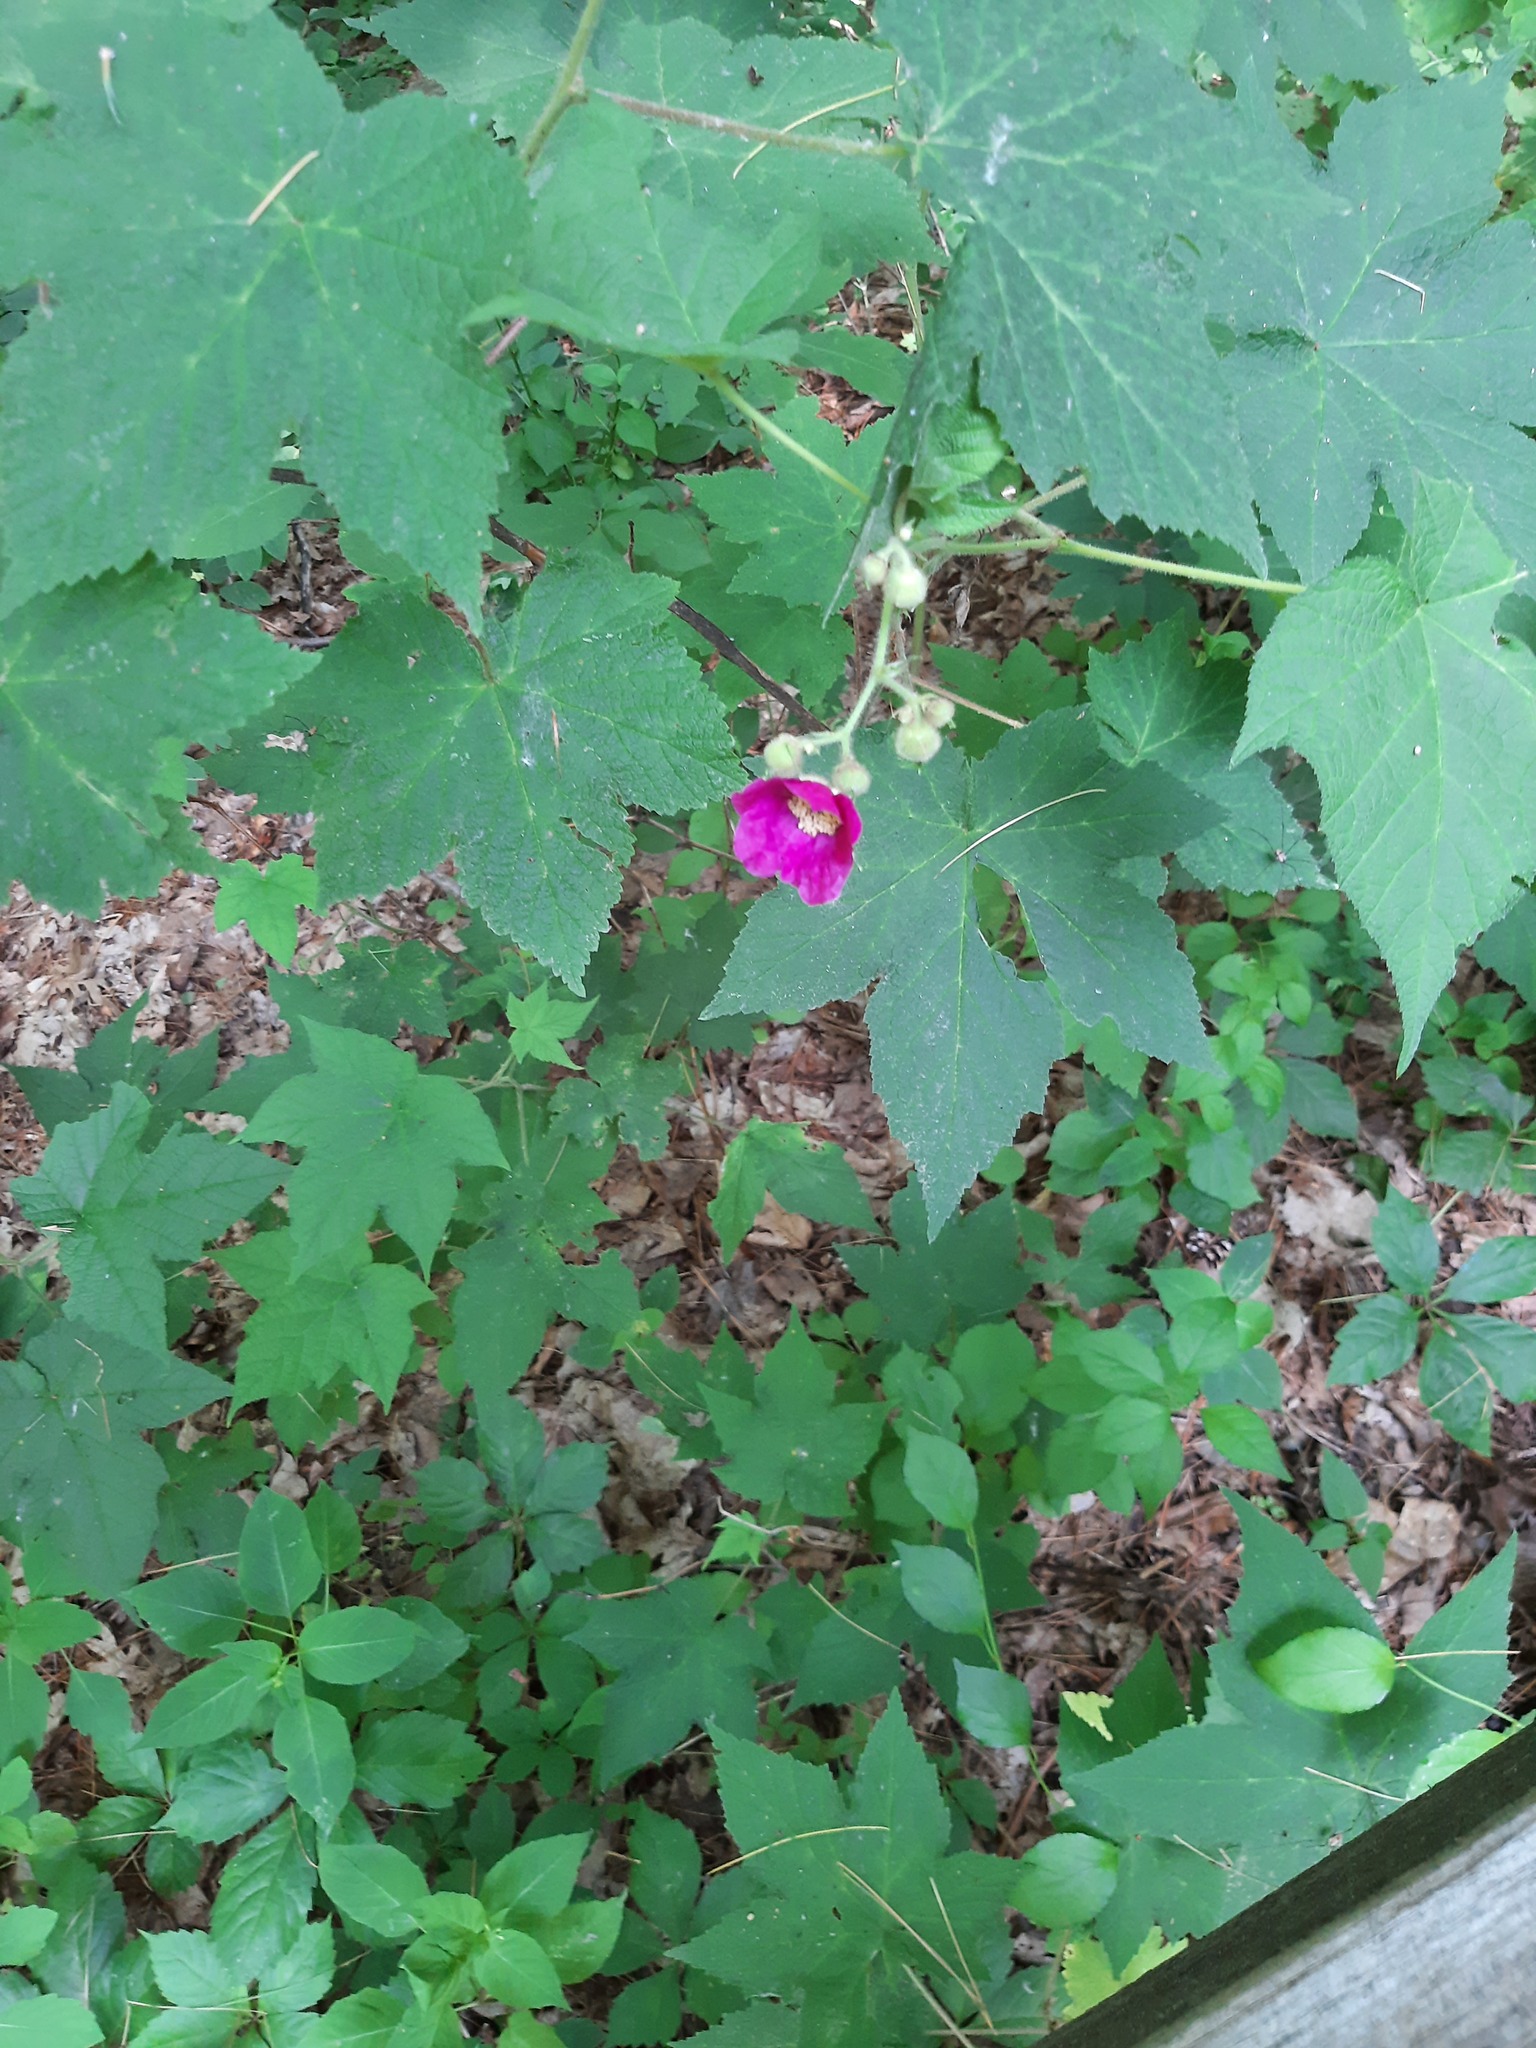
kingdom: Plantae
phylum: Tracheophyta
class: Magnoliopsida
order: Rosales
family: Rosaceae
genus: Rubus
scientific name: Rubus odoratus
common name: Purple-flowered raspberry
